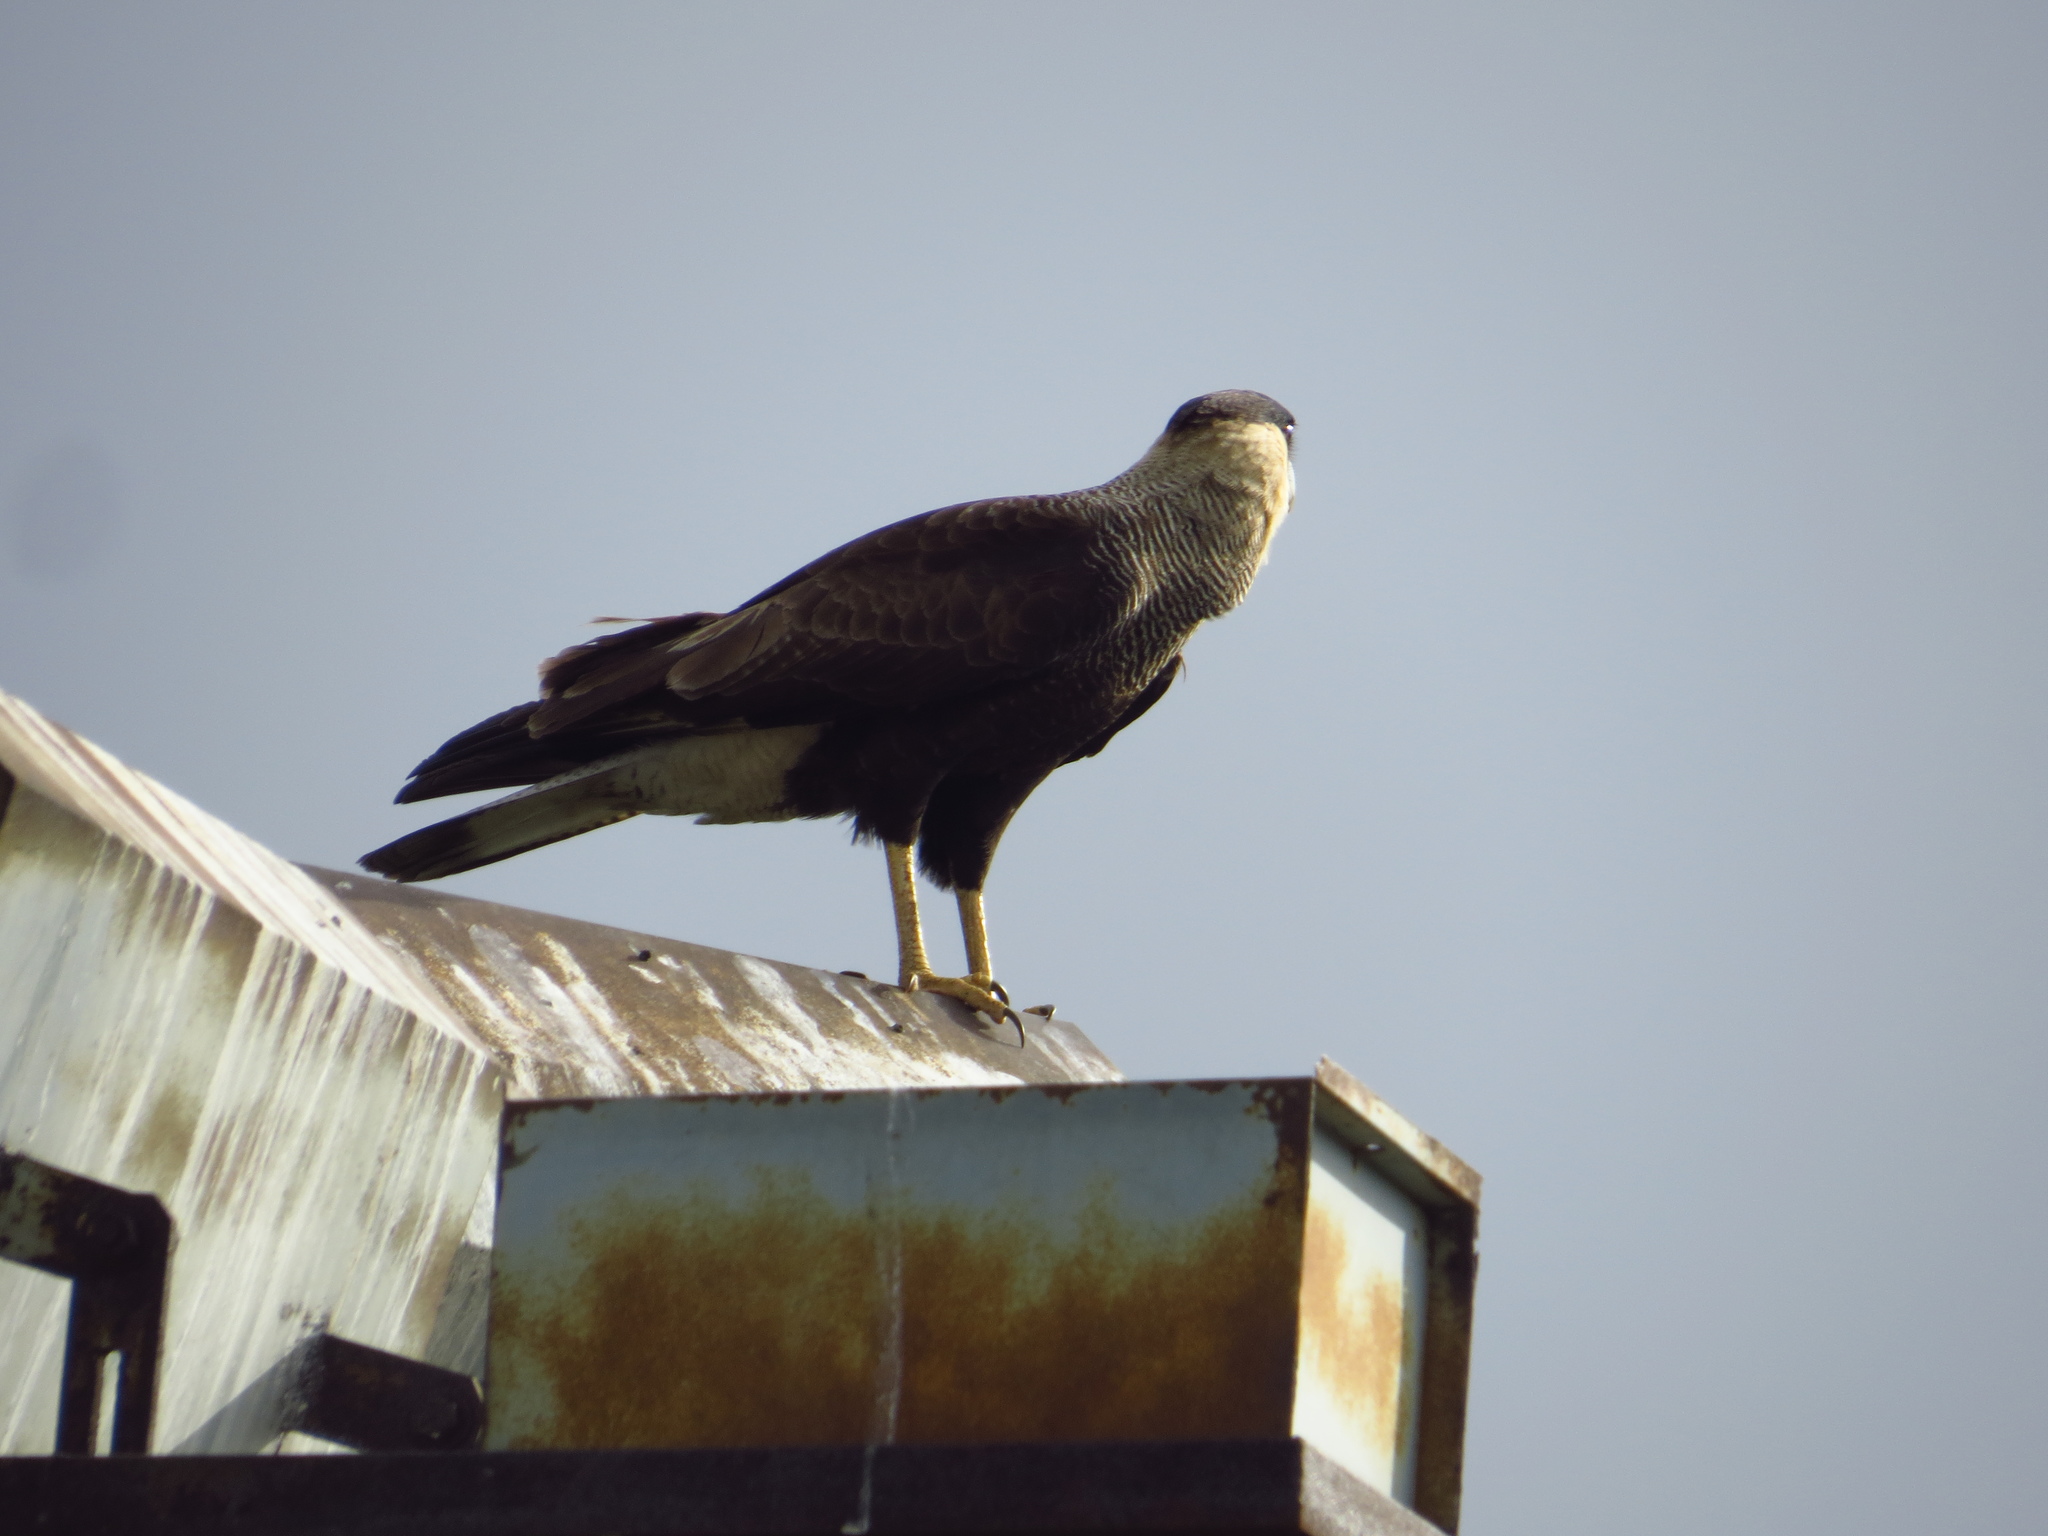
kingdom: Animalia
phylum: Chordata
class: Aves
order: Falconiformes
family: Falconidae
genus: Caracara
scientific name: Caracara plancus
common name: Southern caracara
